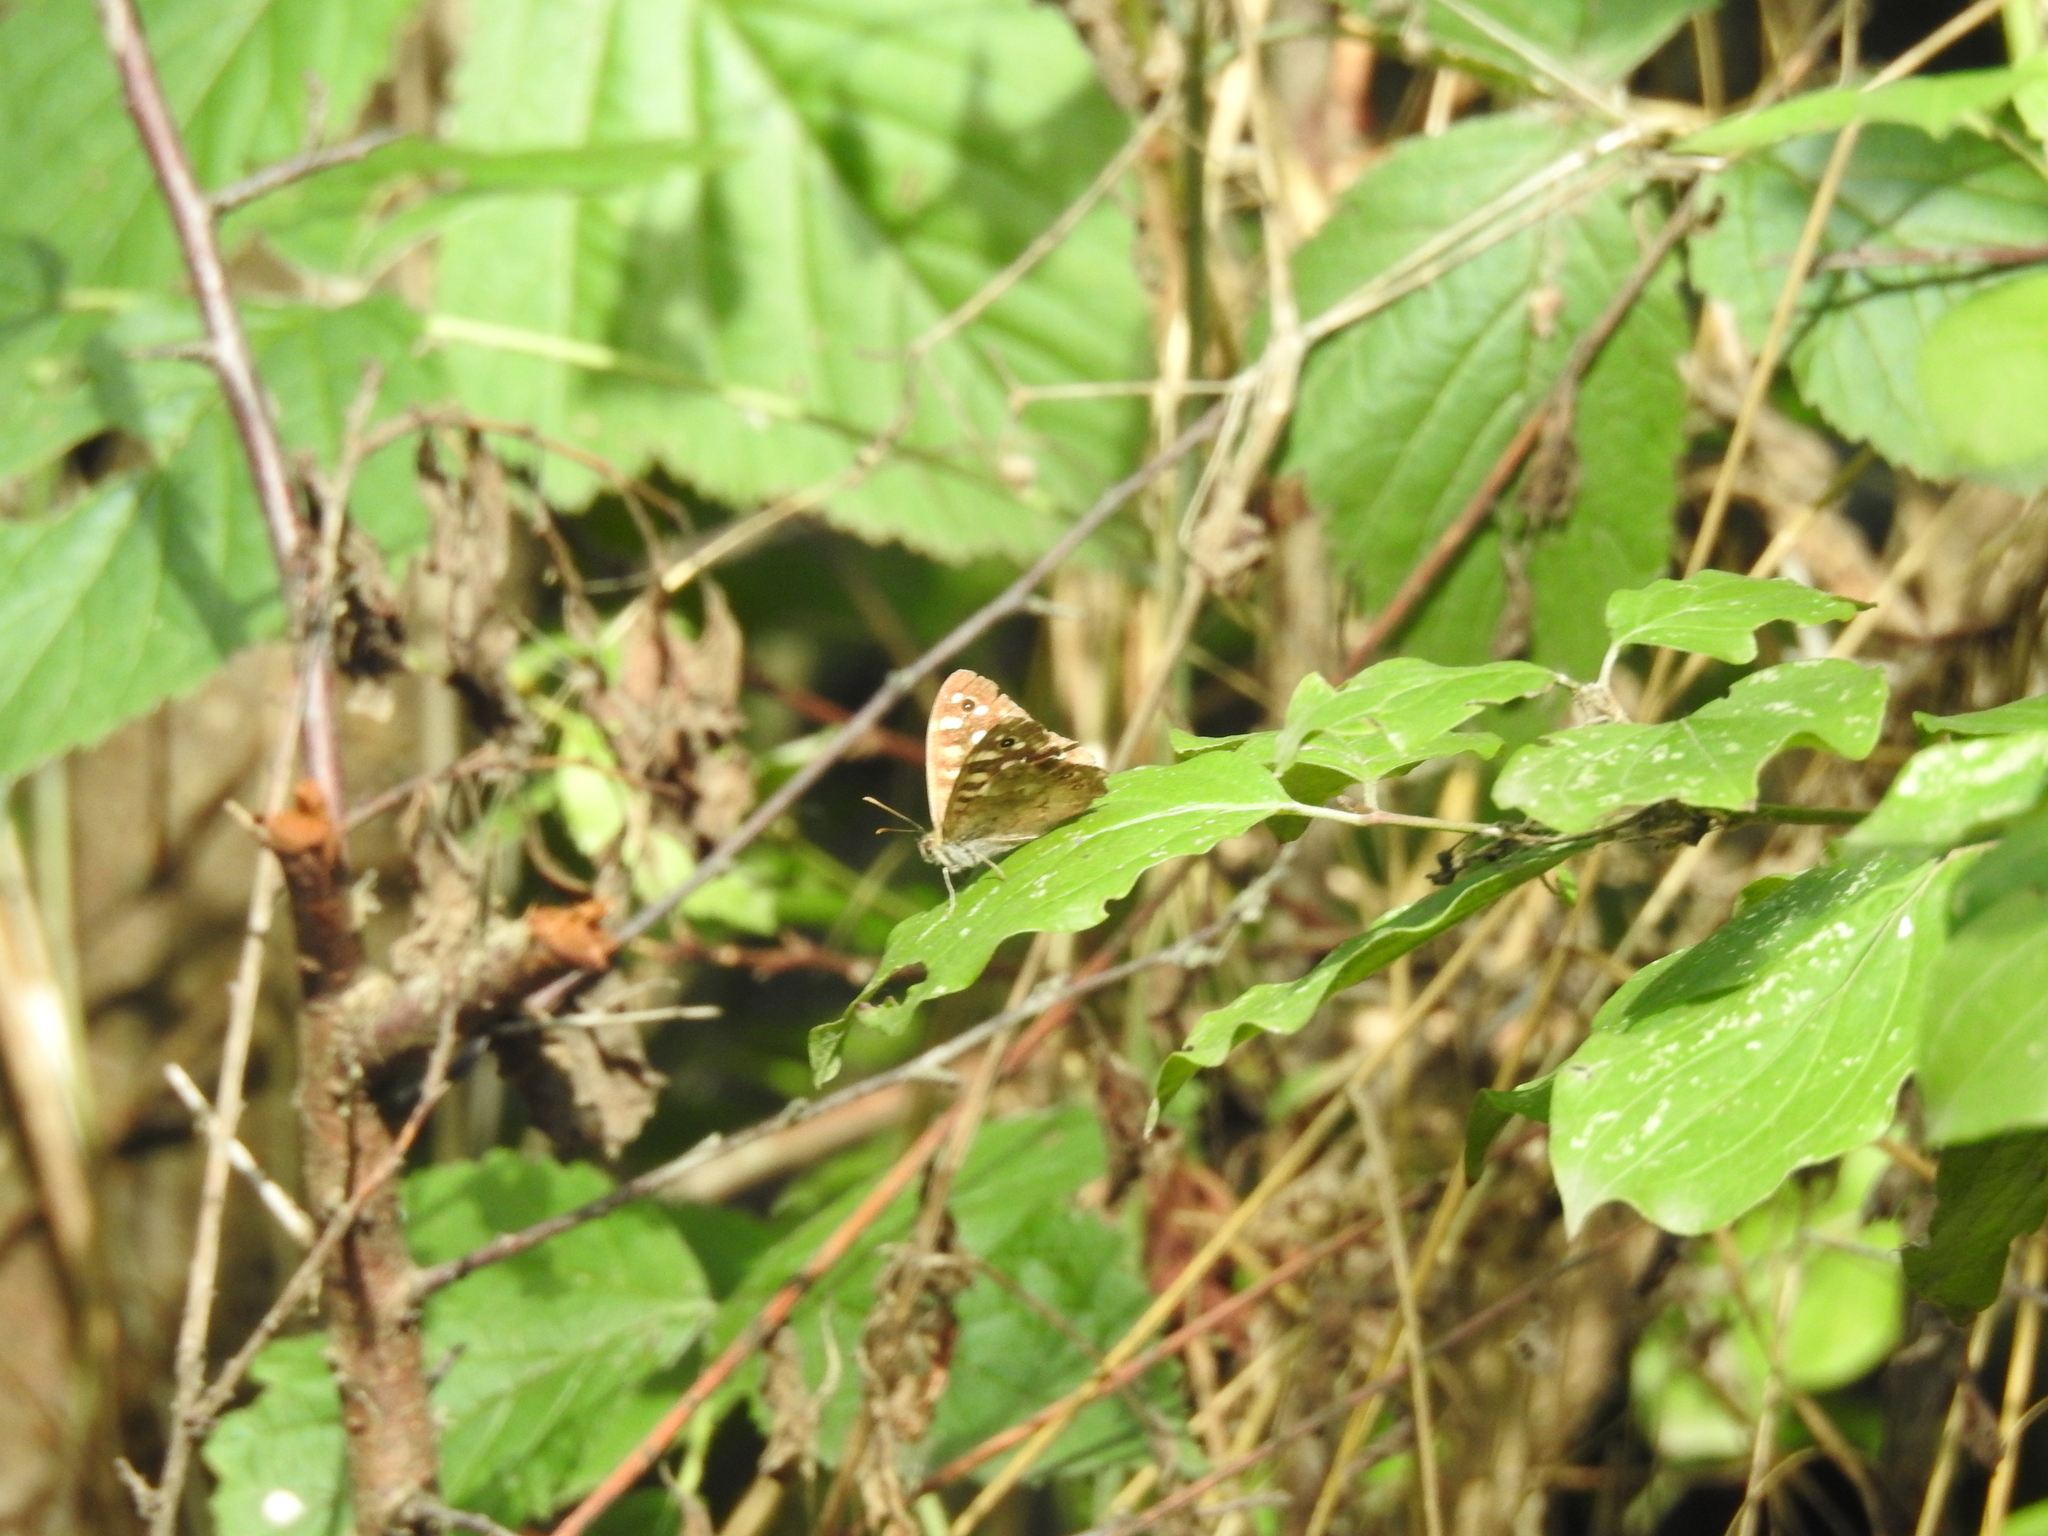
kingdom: Animalia
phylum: Arthropoda
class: Insecta
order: Lepidoptera
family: Nymphalidae
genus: Pararge
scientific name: Pararge aegeria
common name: Speckled wood
